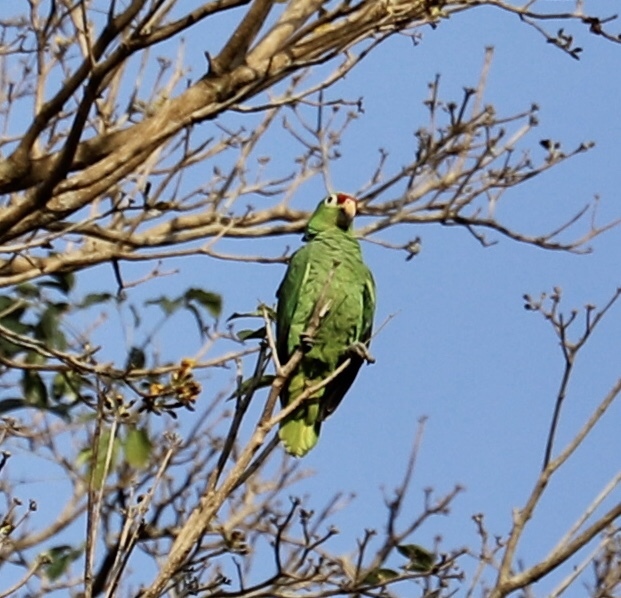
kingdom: Animalia
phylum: Chordata
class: Aves
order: Psittaciformes
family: Psittacidae
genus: Amazona
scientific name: Amazona autumnalis
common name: Red-lored amazon
